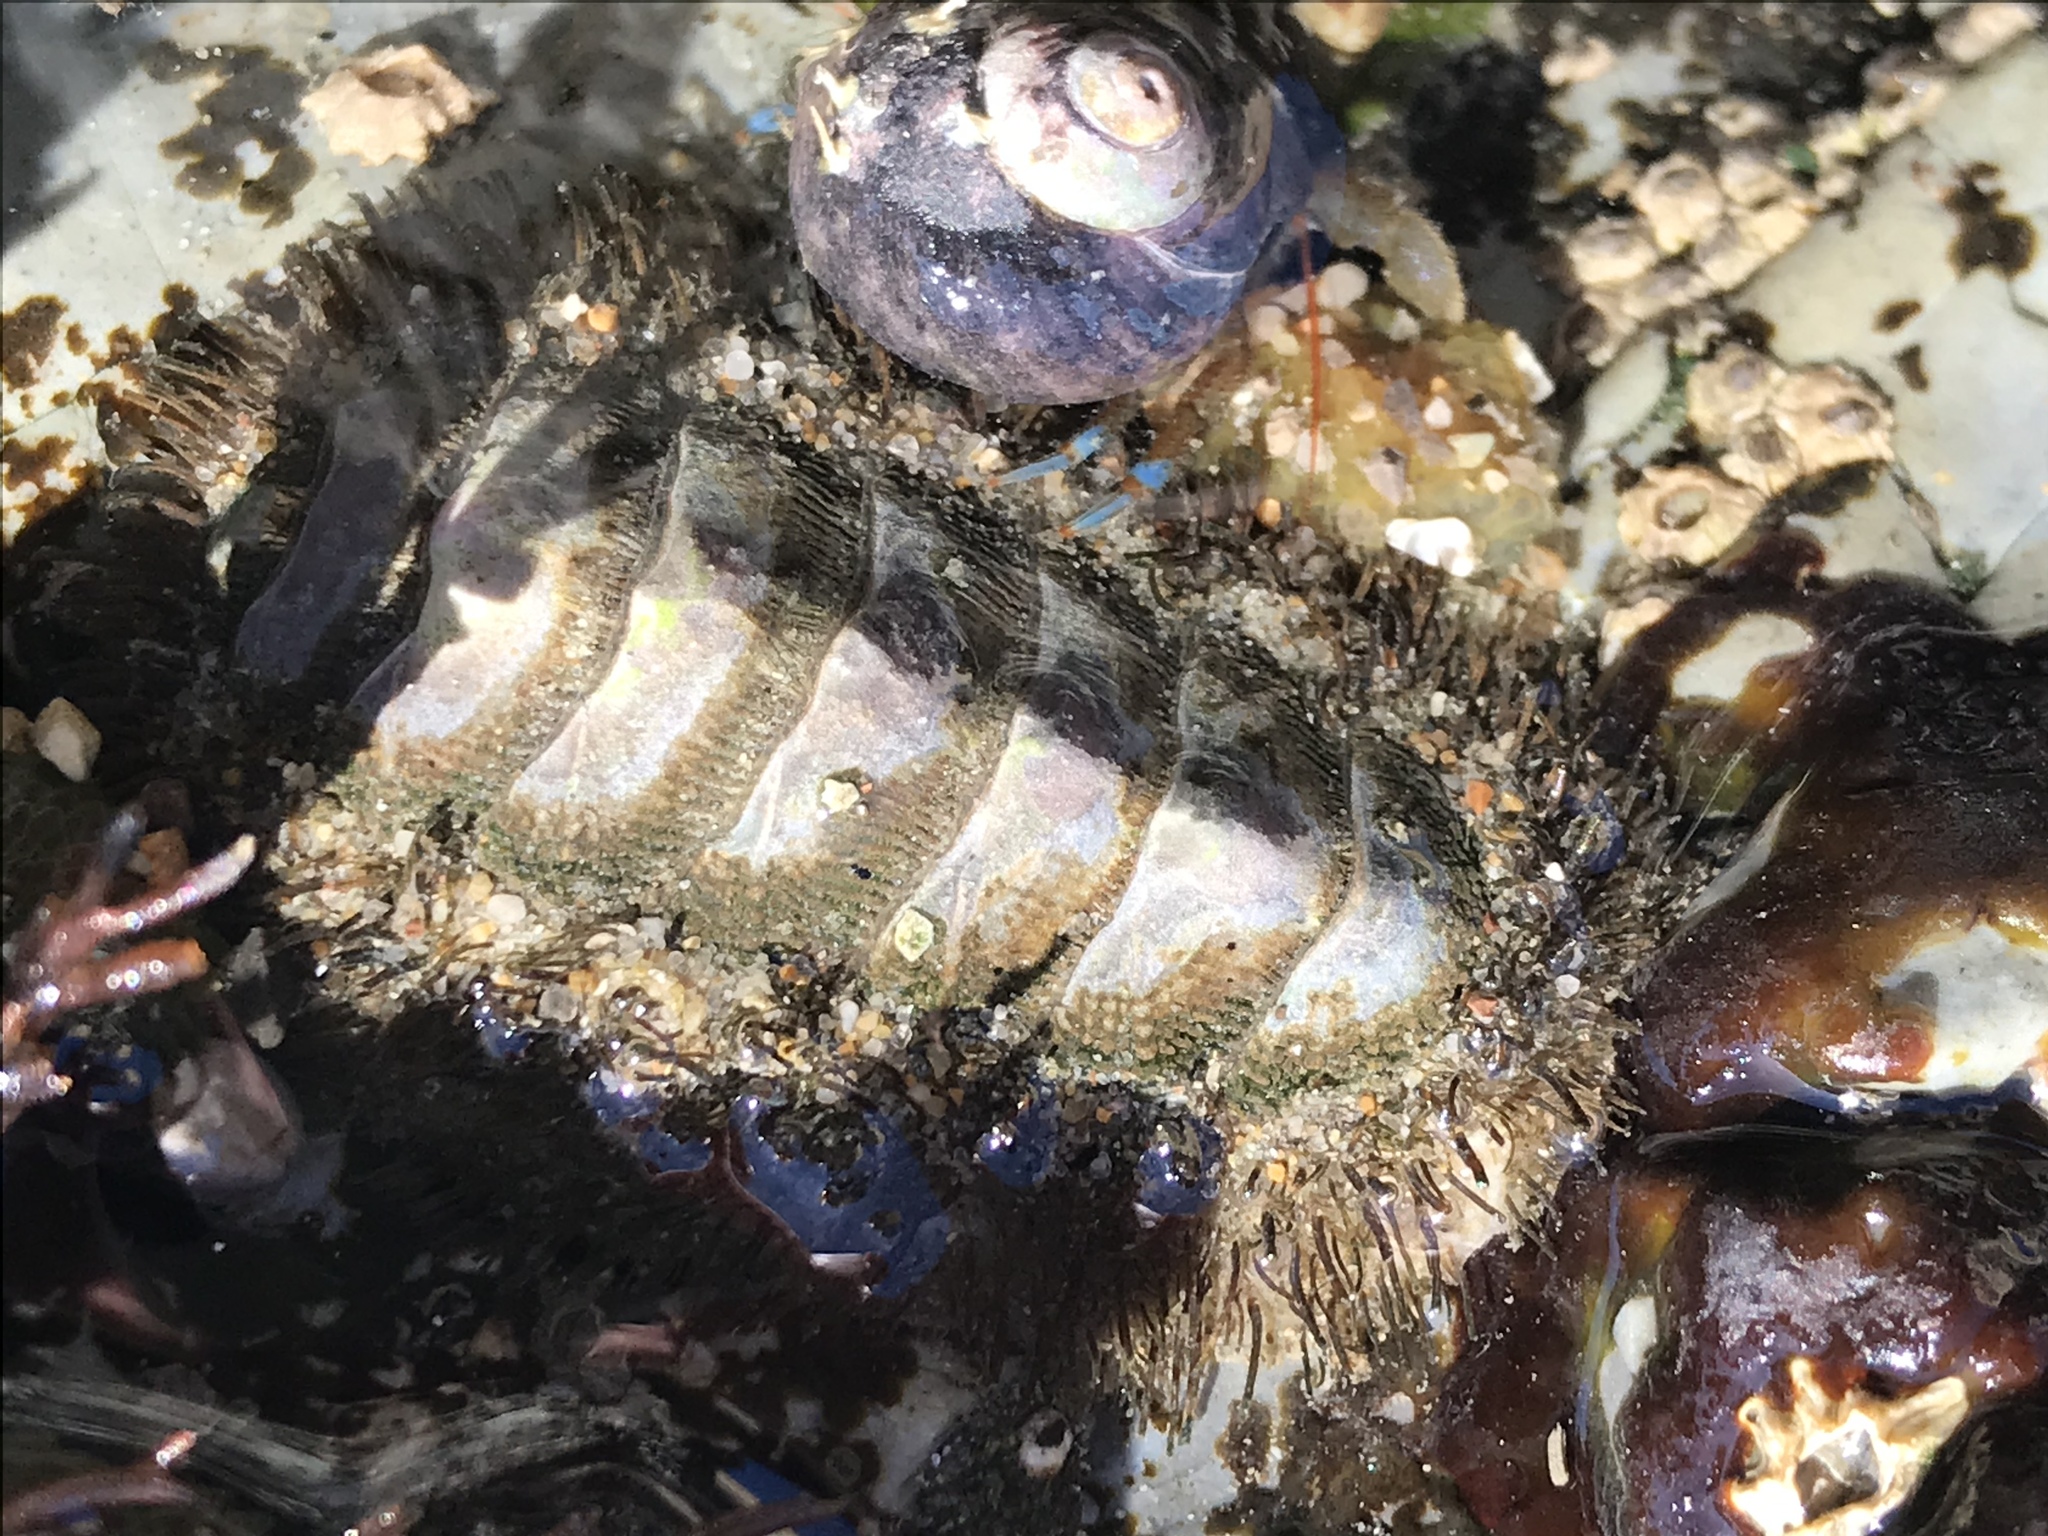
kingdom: Animalia
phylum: Mollusca
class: Polyplacophora
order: Chitonida
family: Mopaliidae
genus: Mopalia
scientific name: Mopalia muscosa
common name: Mossy chiton
